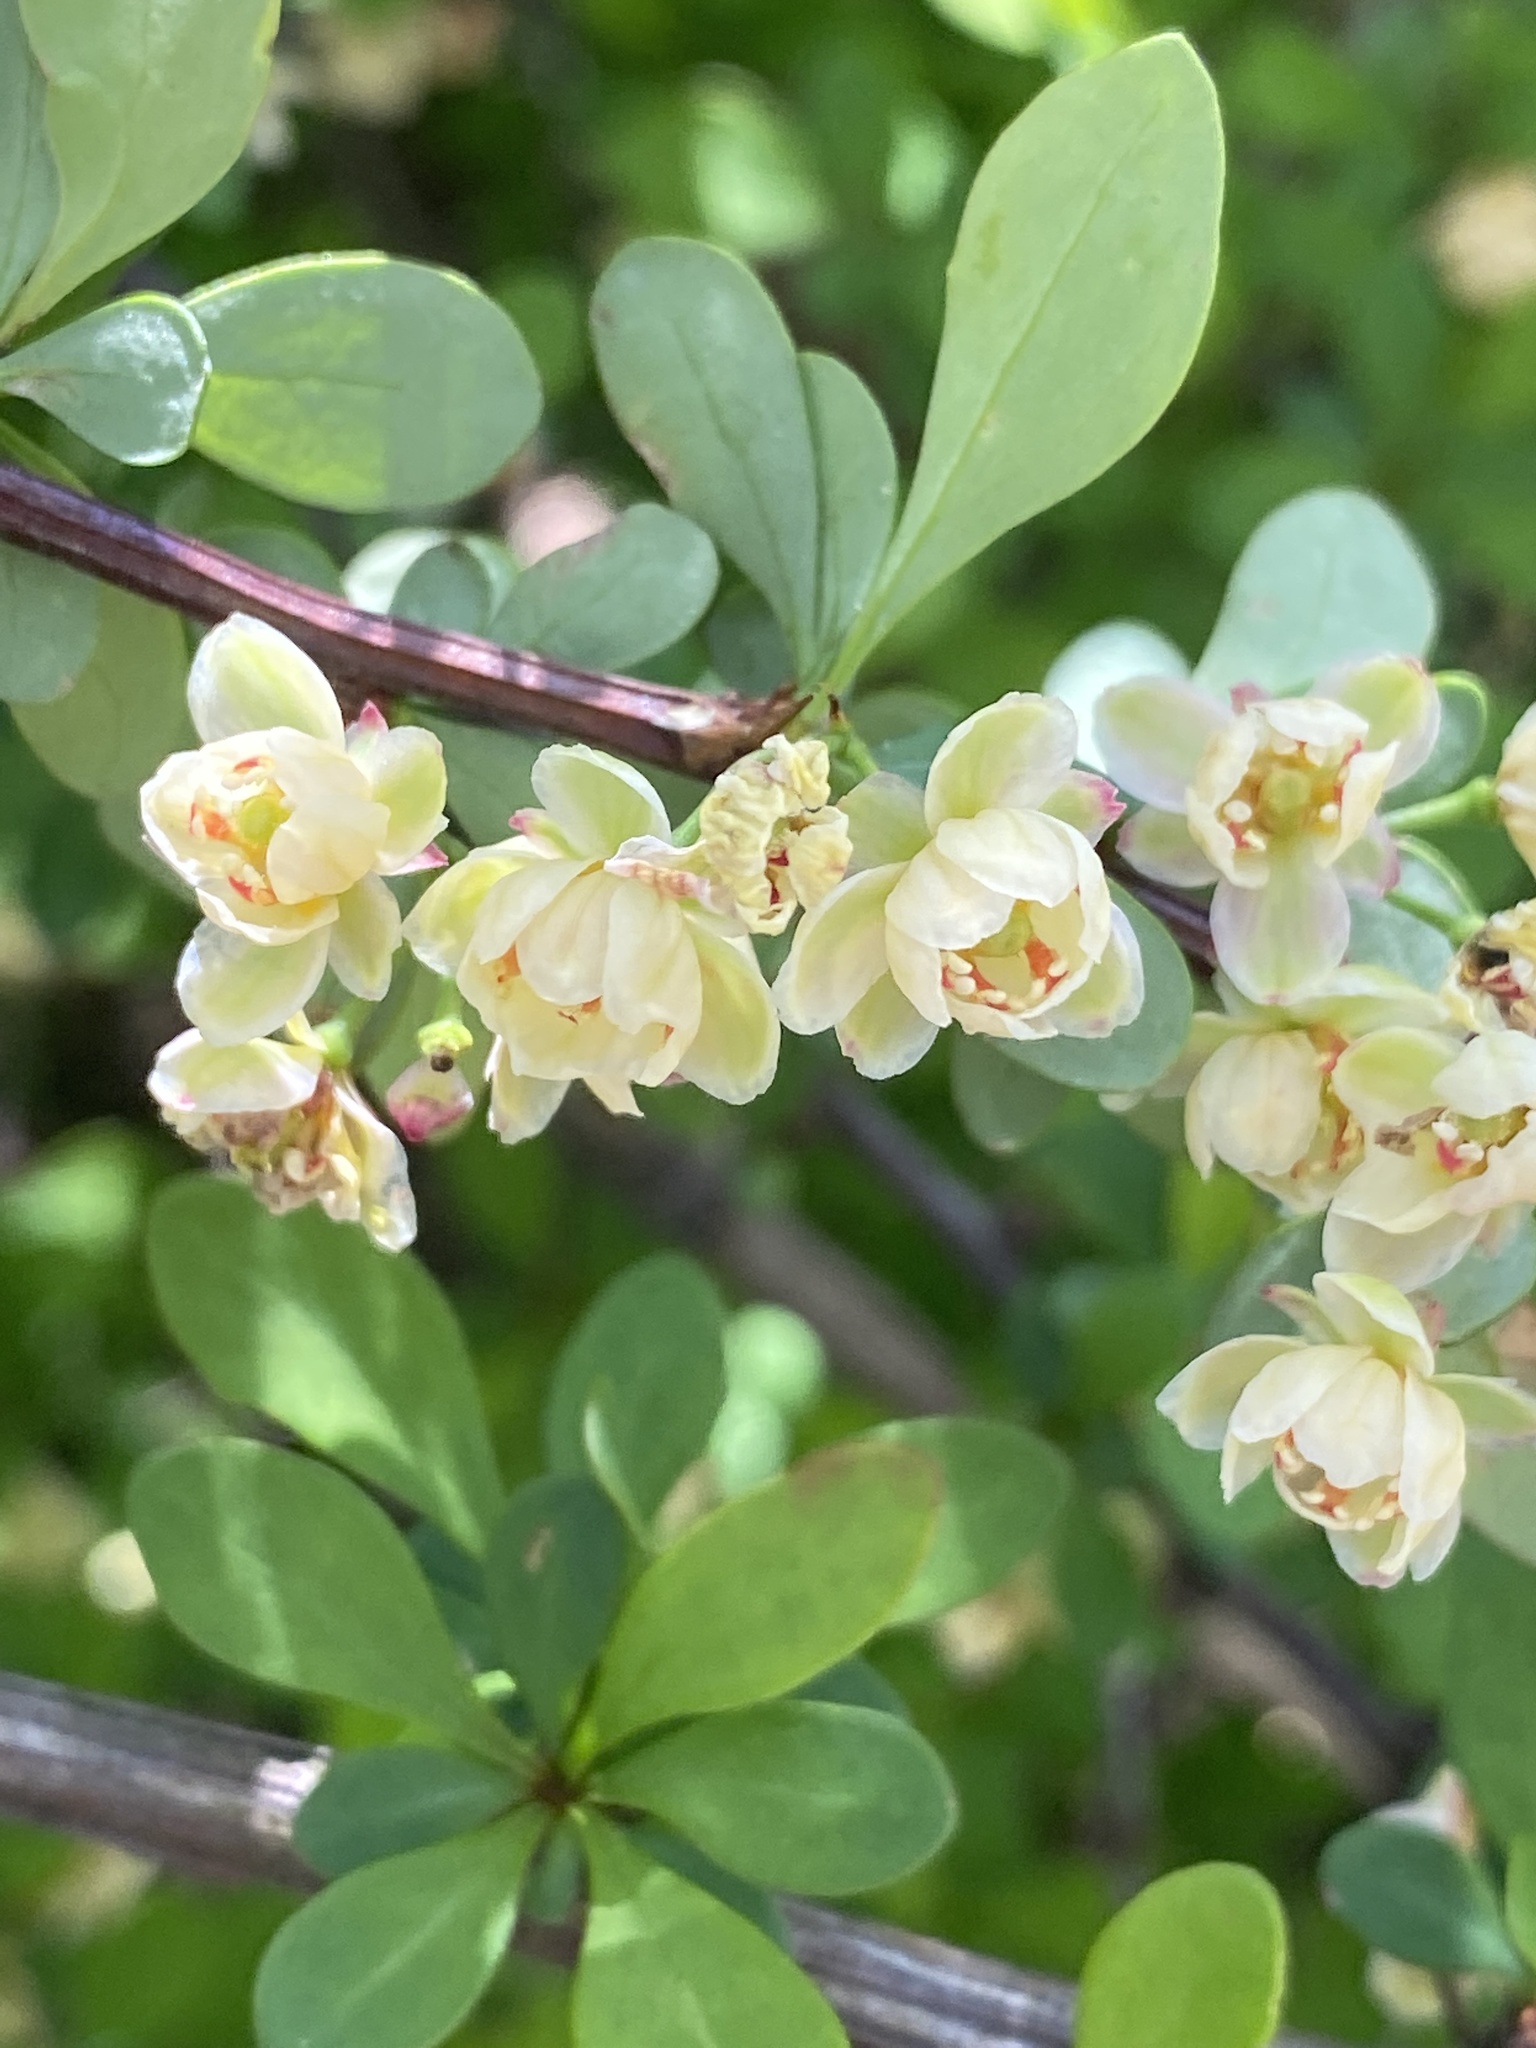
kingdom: Plantae
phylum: Tracheophyta
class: Magnoliopsida
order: Ranunculales
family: Berberidaceae
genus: Berberis
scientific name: Berberis thunbergii
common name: Japanese barberry
